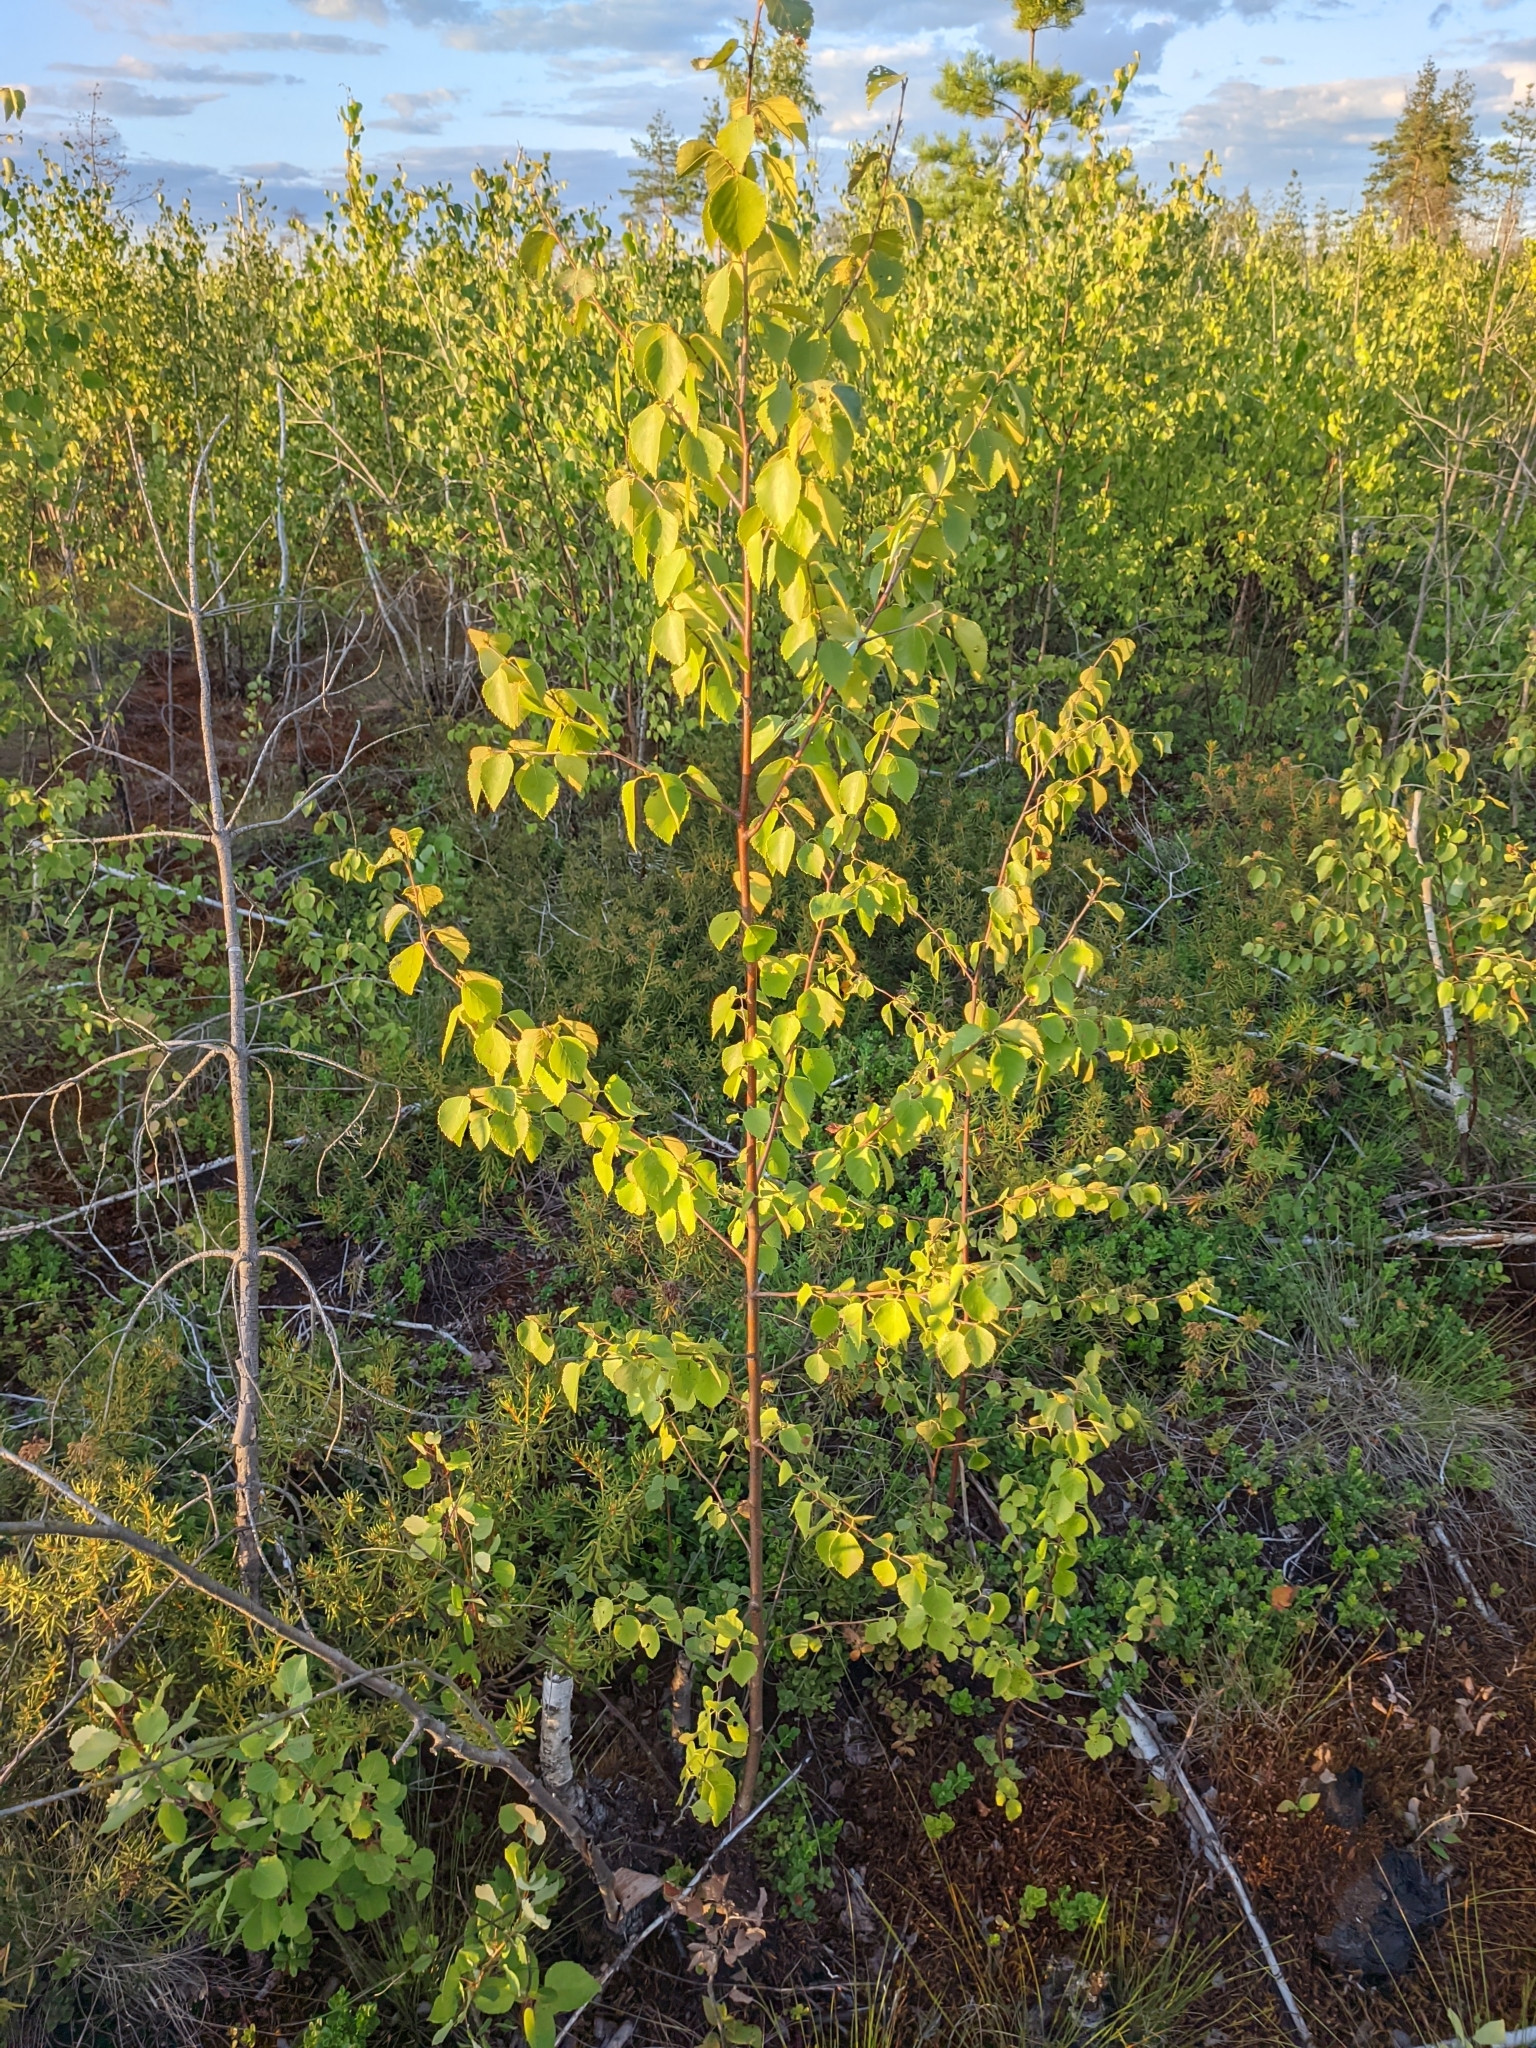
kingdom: Plantae
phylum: Tracheophyta
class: Magnoliopsida
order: Fagales
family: Betulaceae
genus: Betula
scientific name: Betula pubescens
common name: Downy birch
